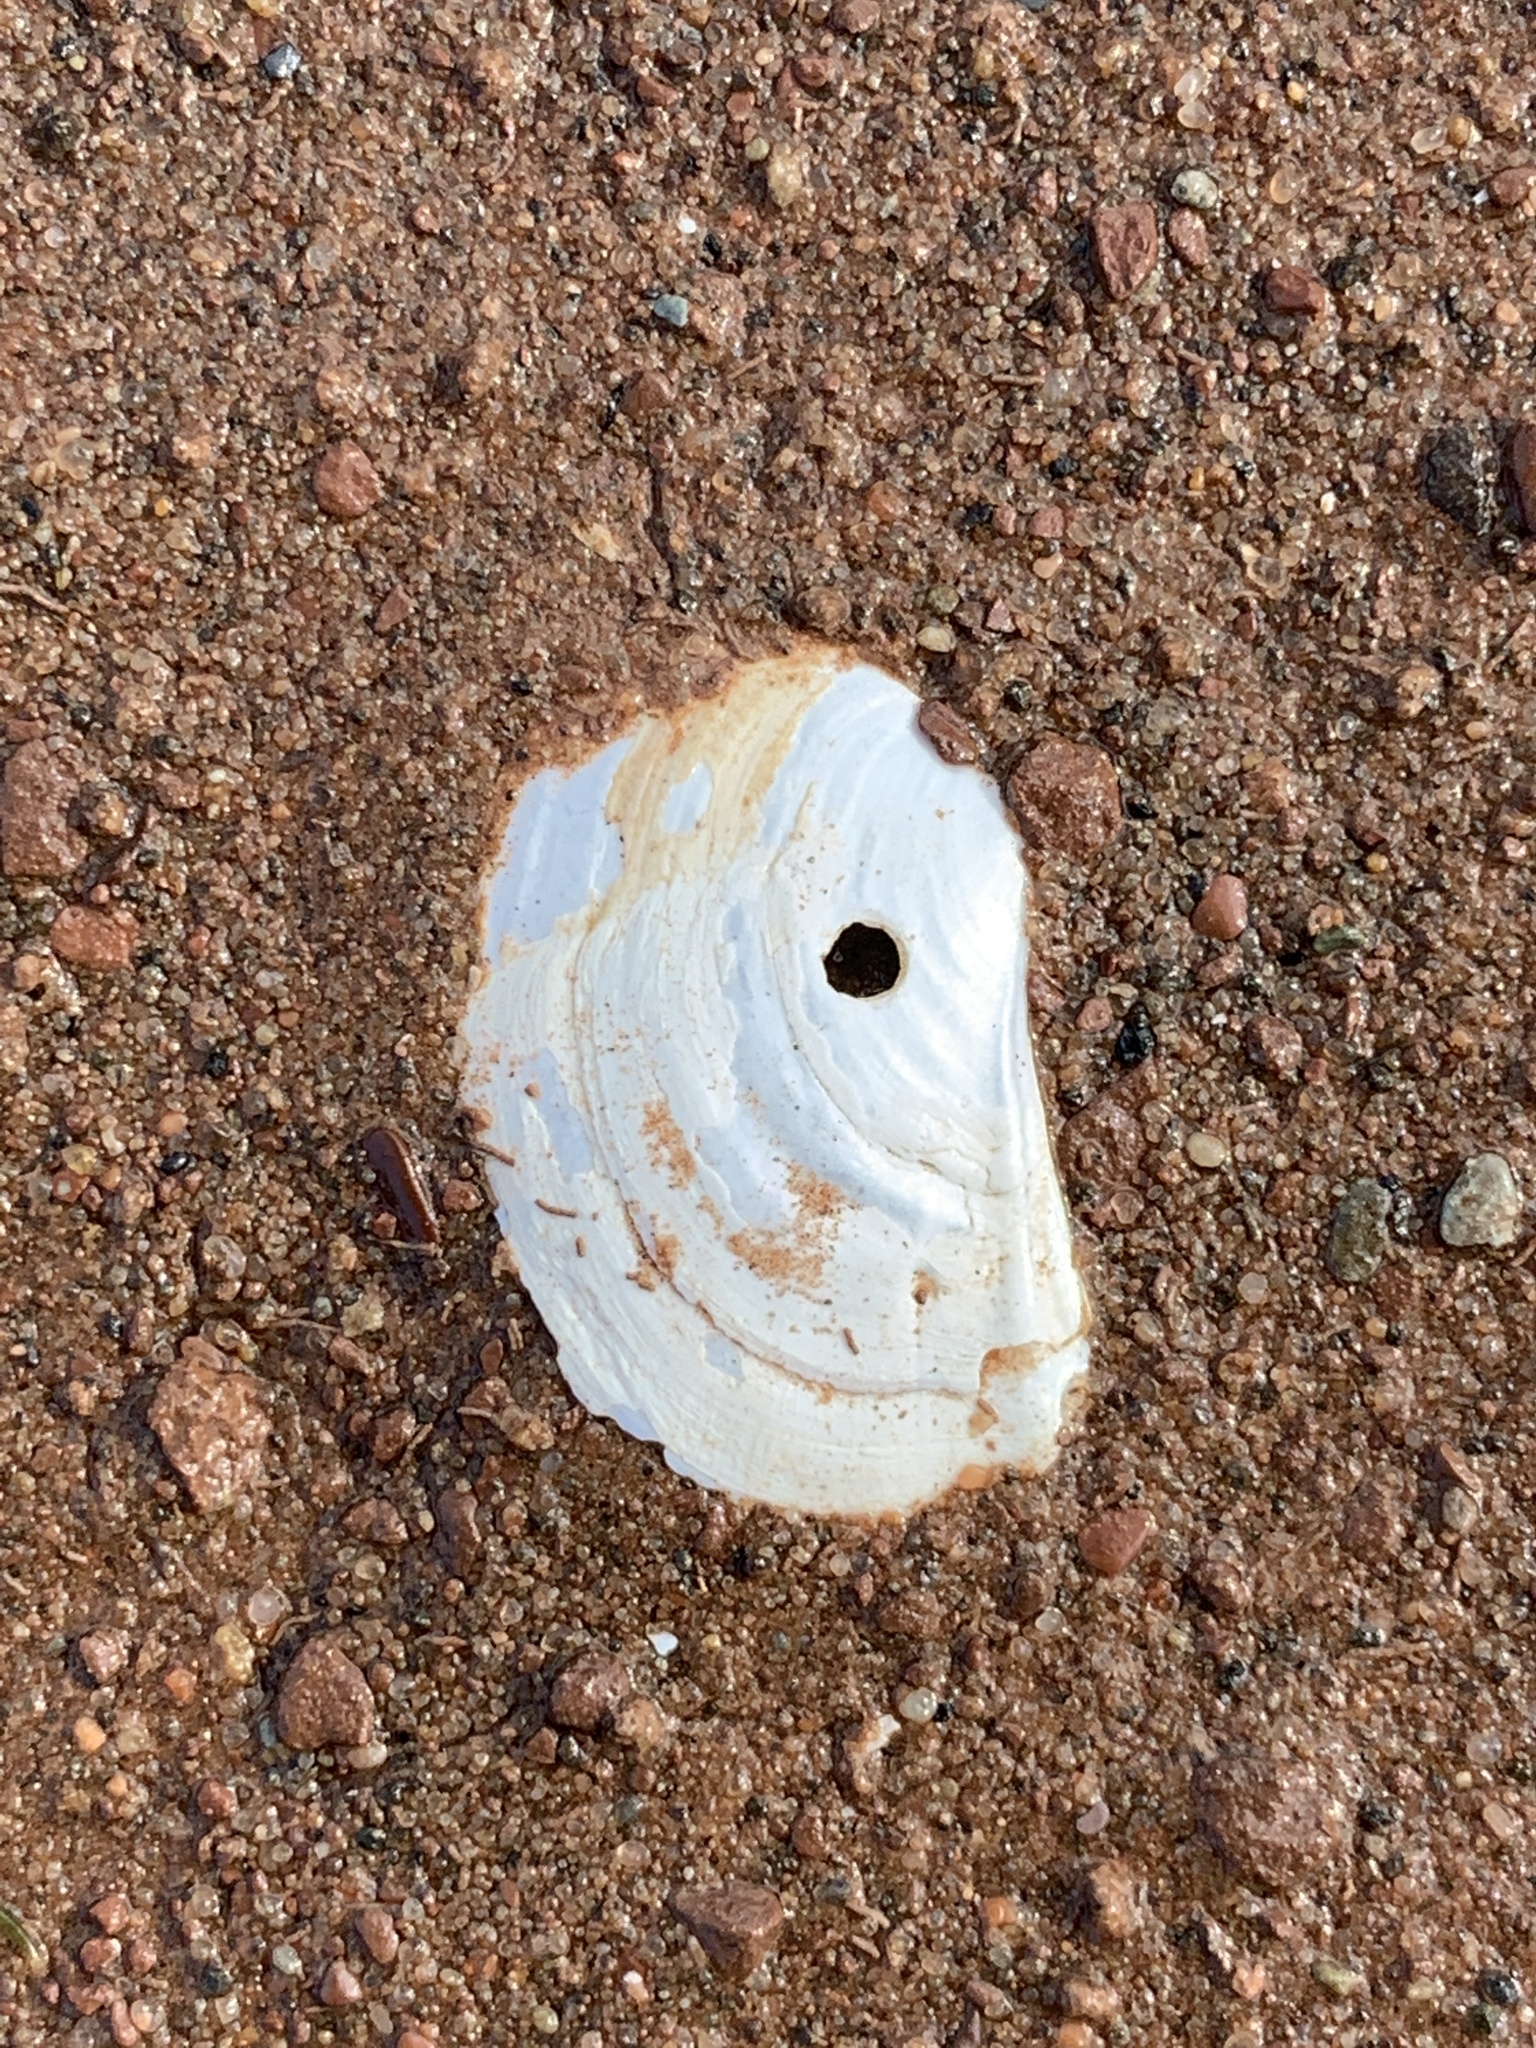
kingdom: Animalia
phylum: Mollusca
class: Bivalvia
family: Pandoridae
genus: Pandora
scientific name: Pandora gouldiana
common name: Rounded pandora
